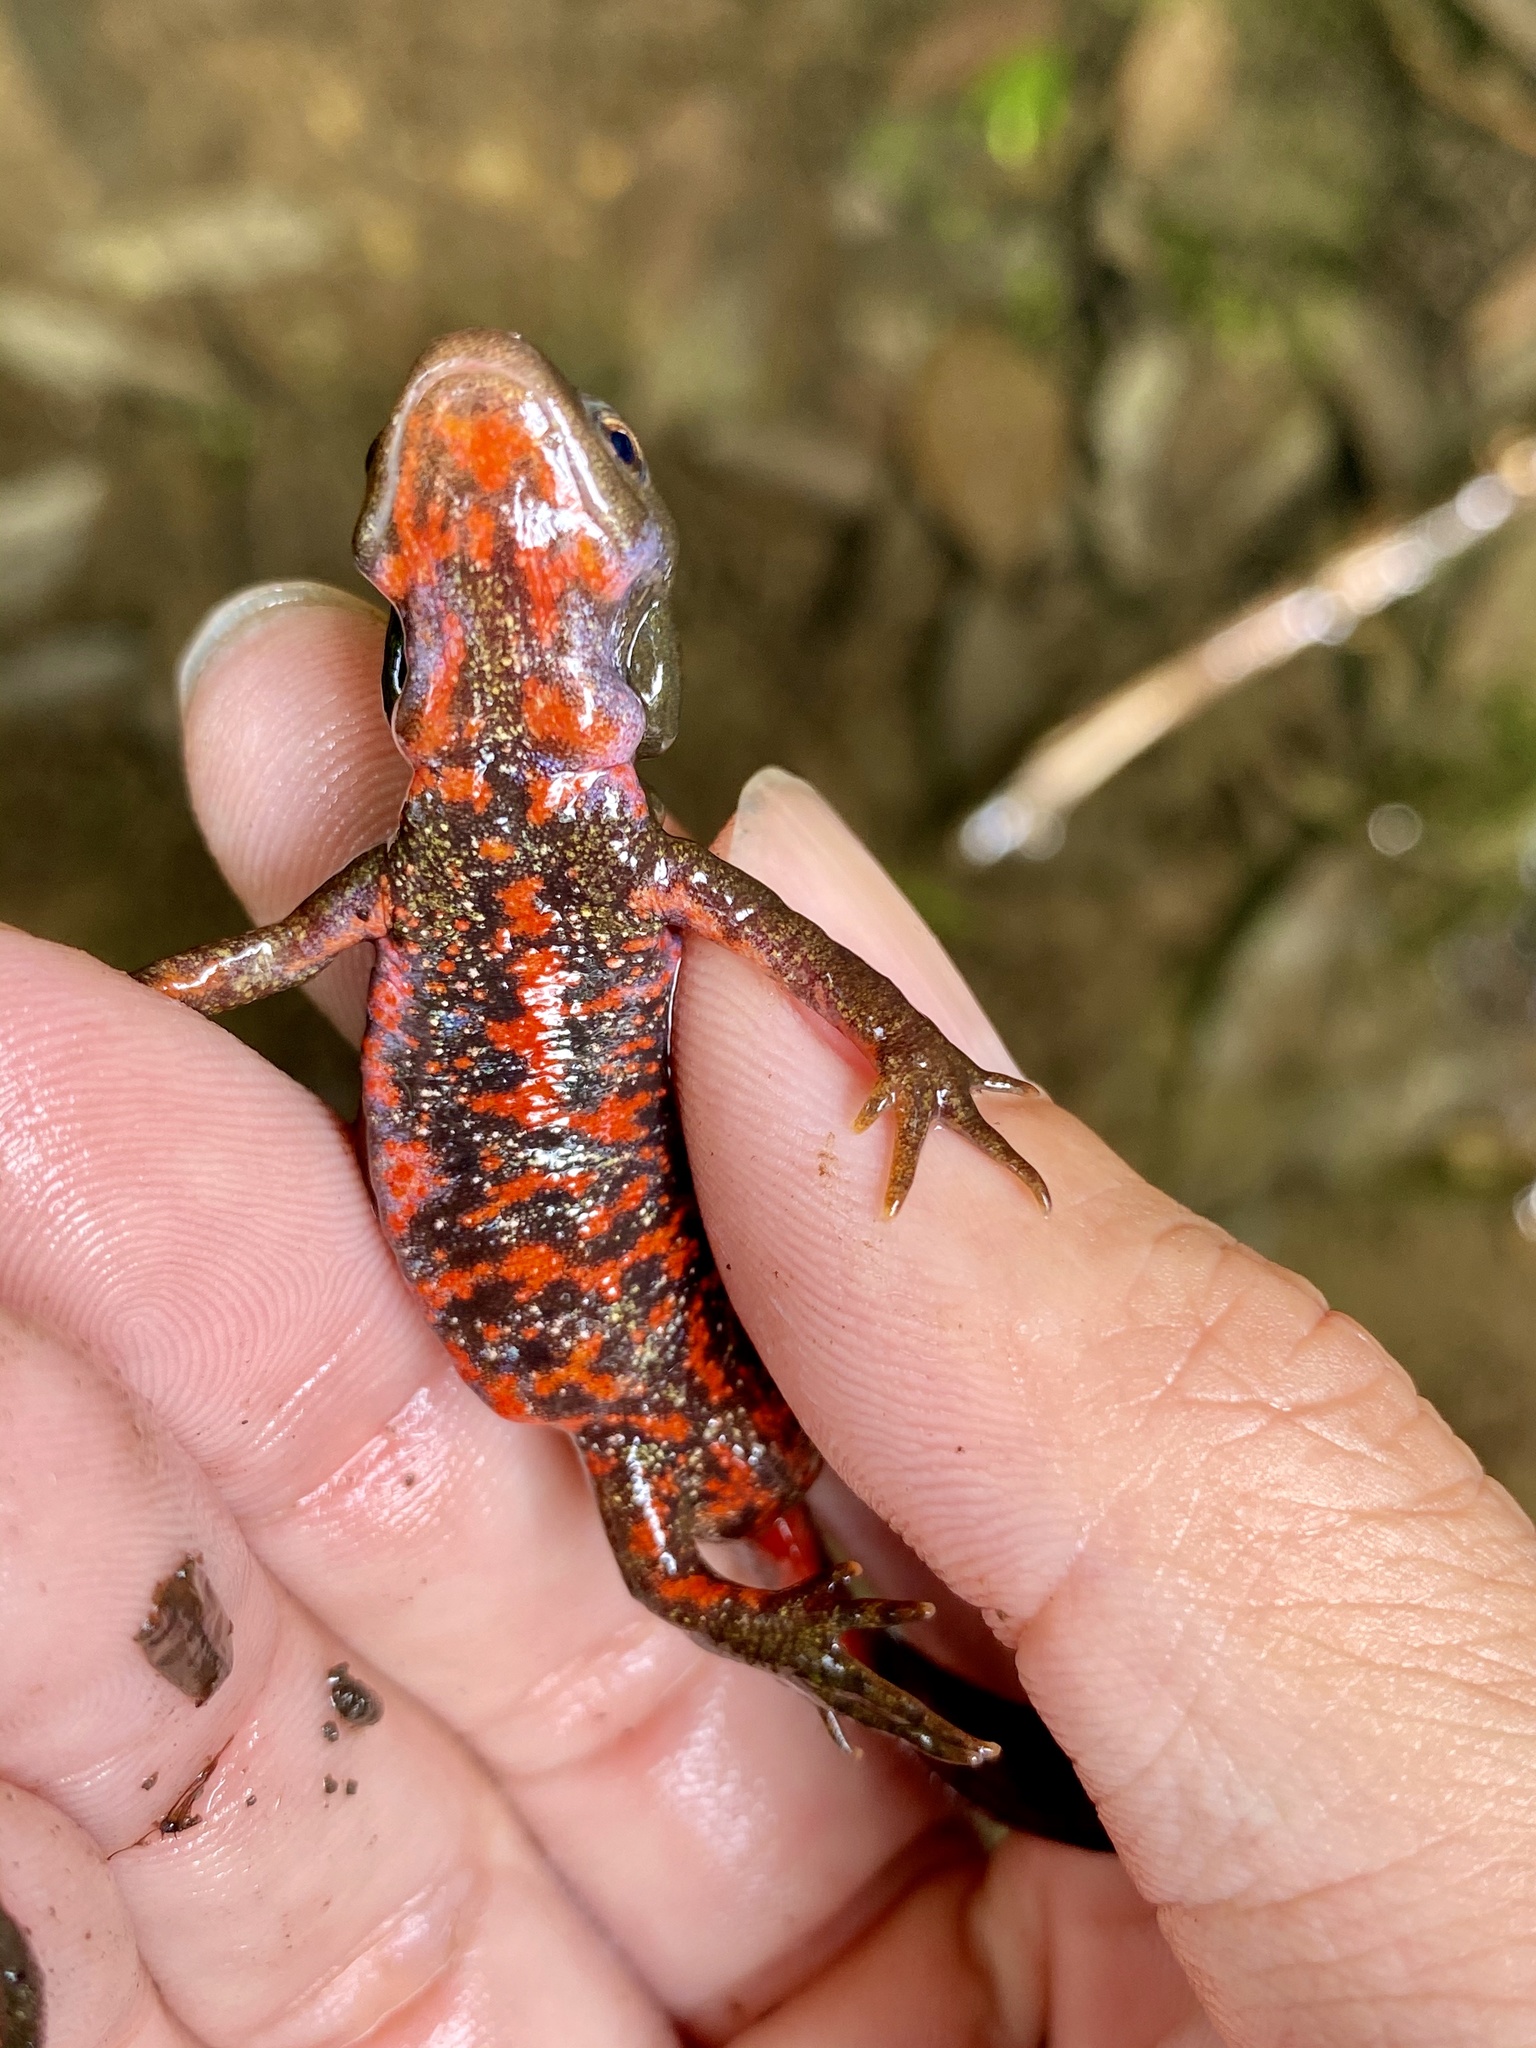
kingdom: Animalia
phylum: Chordata
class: Amphibia
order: Caudata
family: Salamandridae
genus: Cynops
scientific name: Cynops pyrrhogaster
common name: Japanese fire-bellied newt
